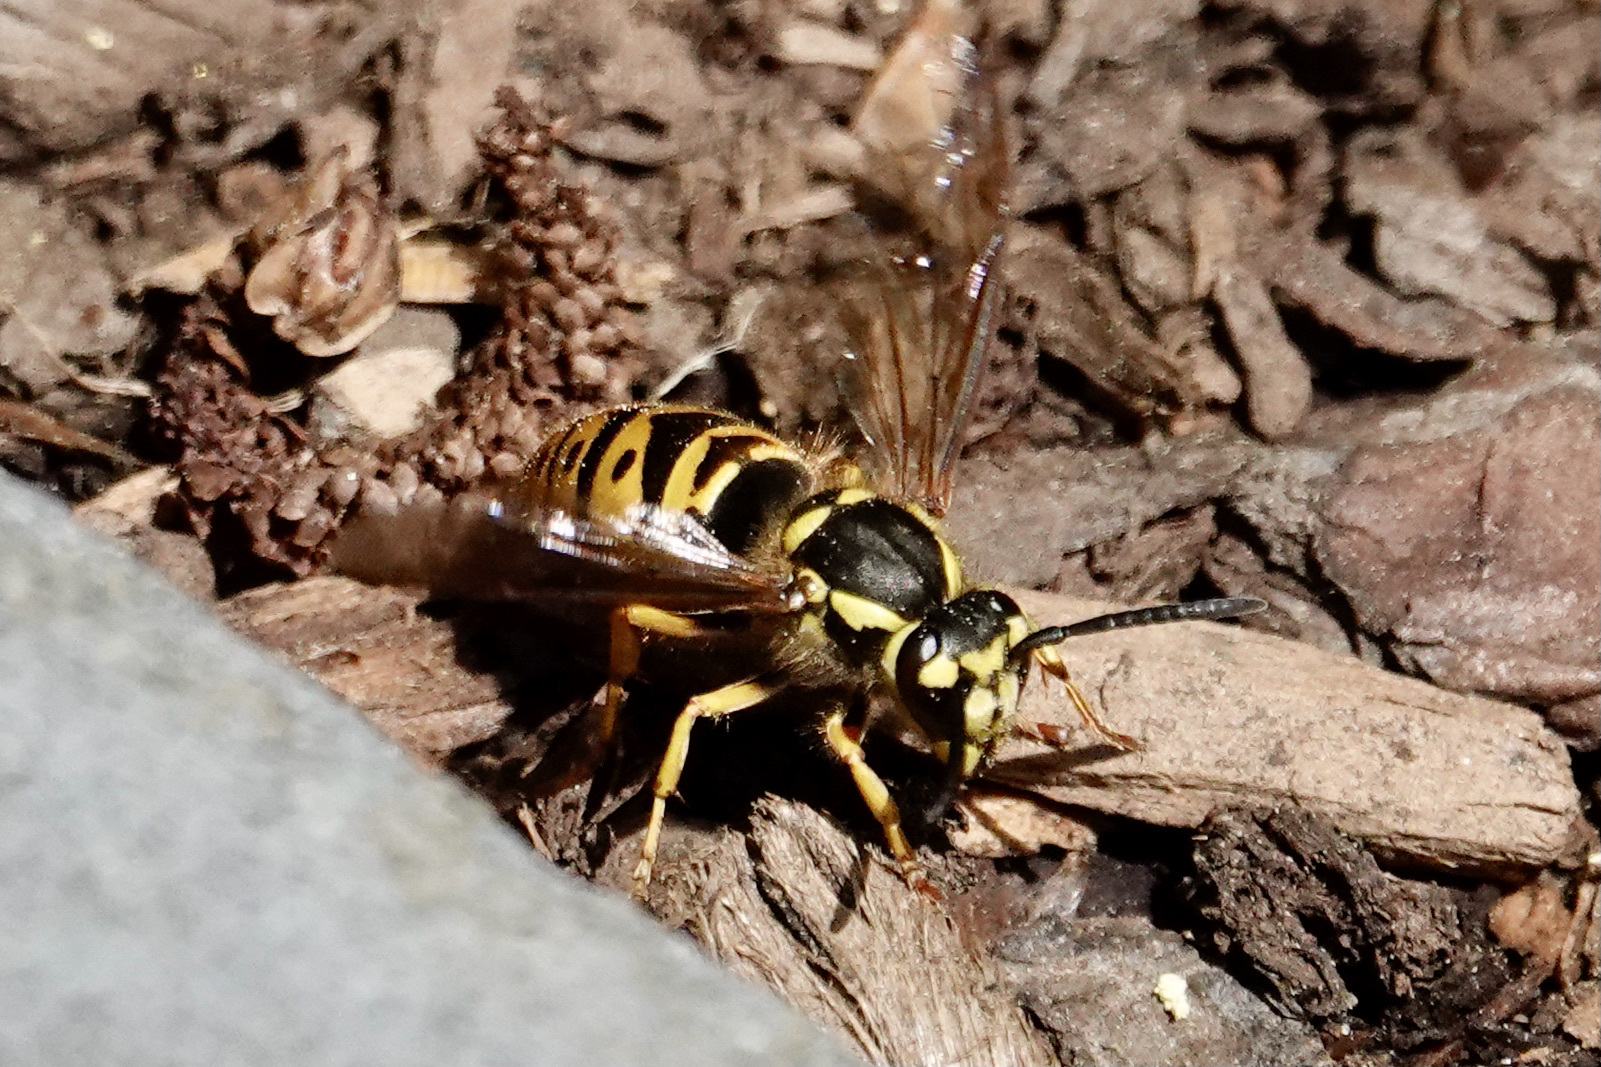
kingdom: Animalia
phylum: Arthropoda
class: Insecta
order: Hymenoptera
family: Vespidae
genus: Vespula
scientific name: Vespula maculifrons
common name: Eastern yellowjacket
